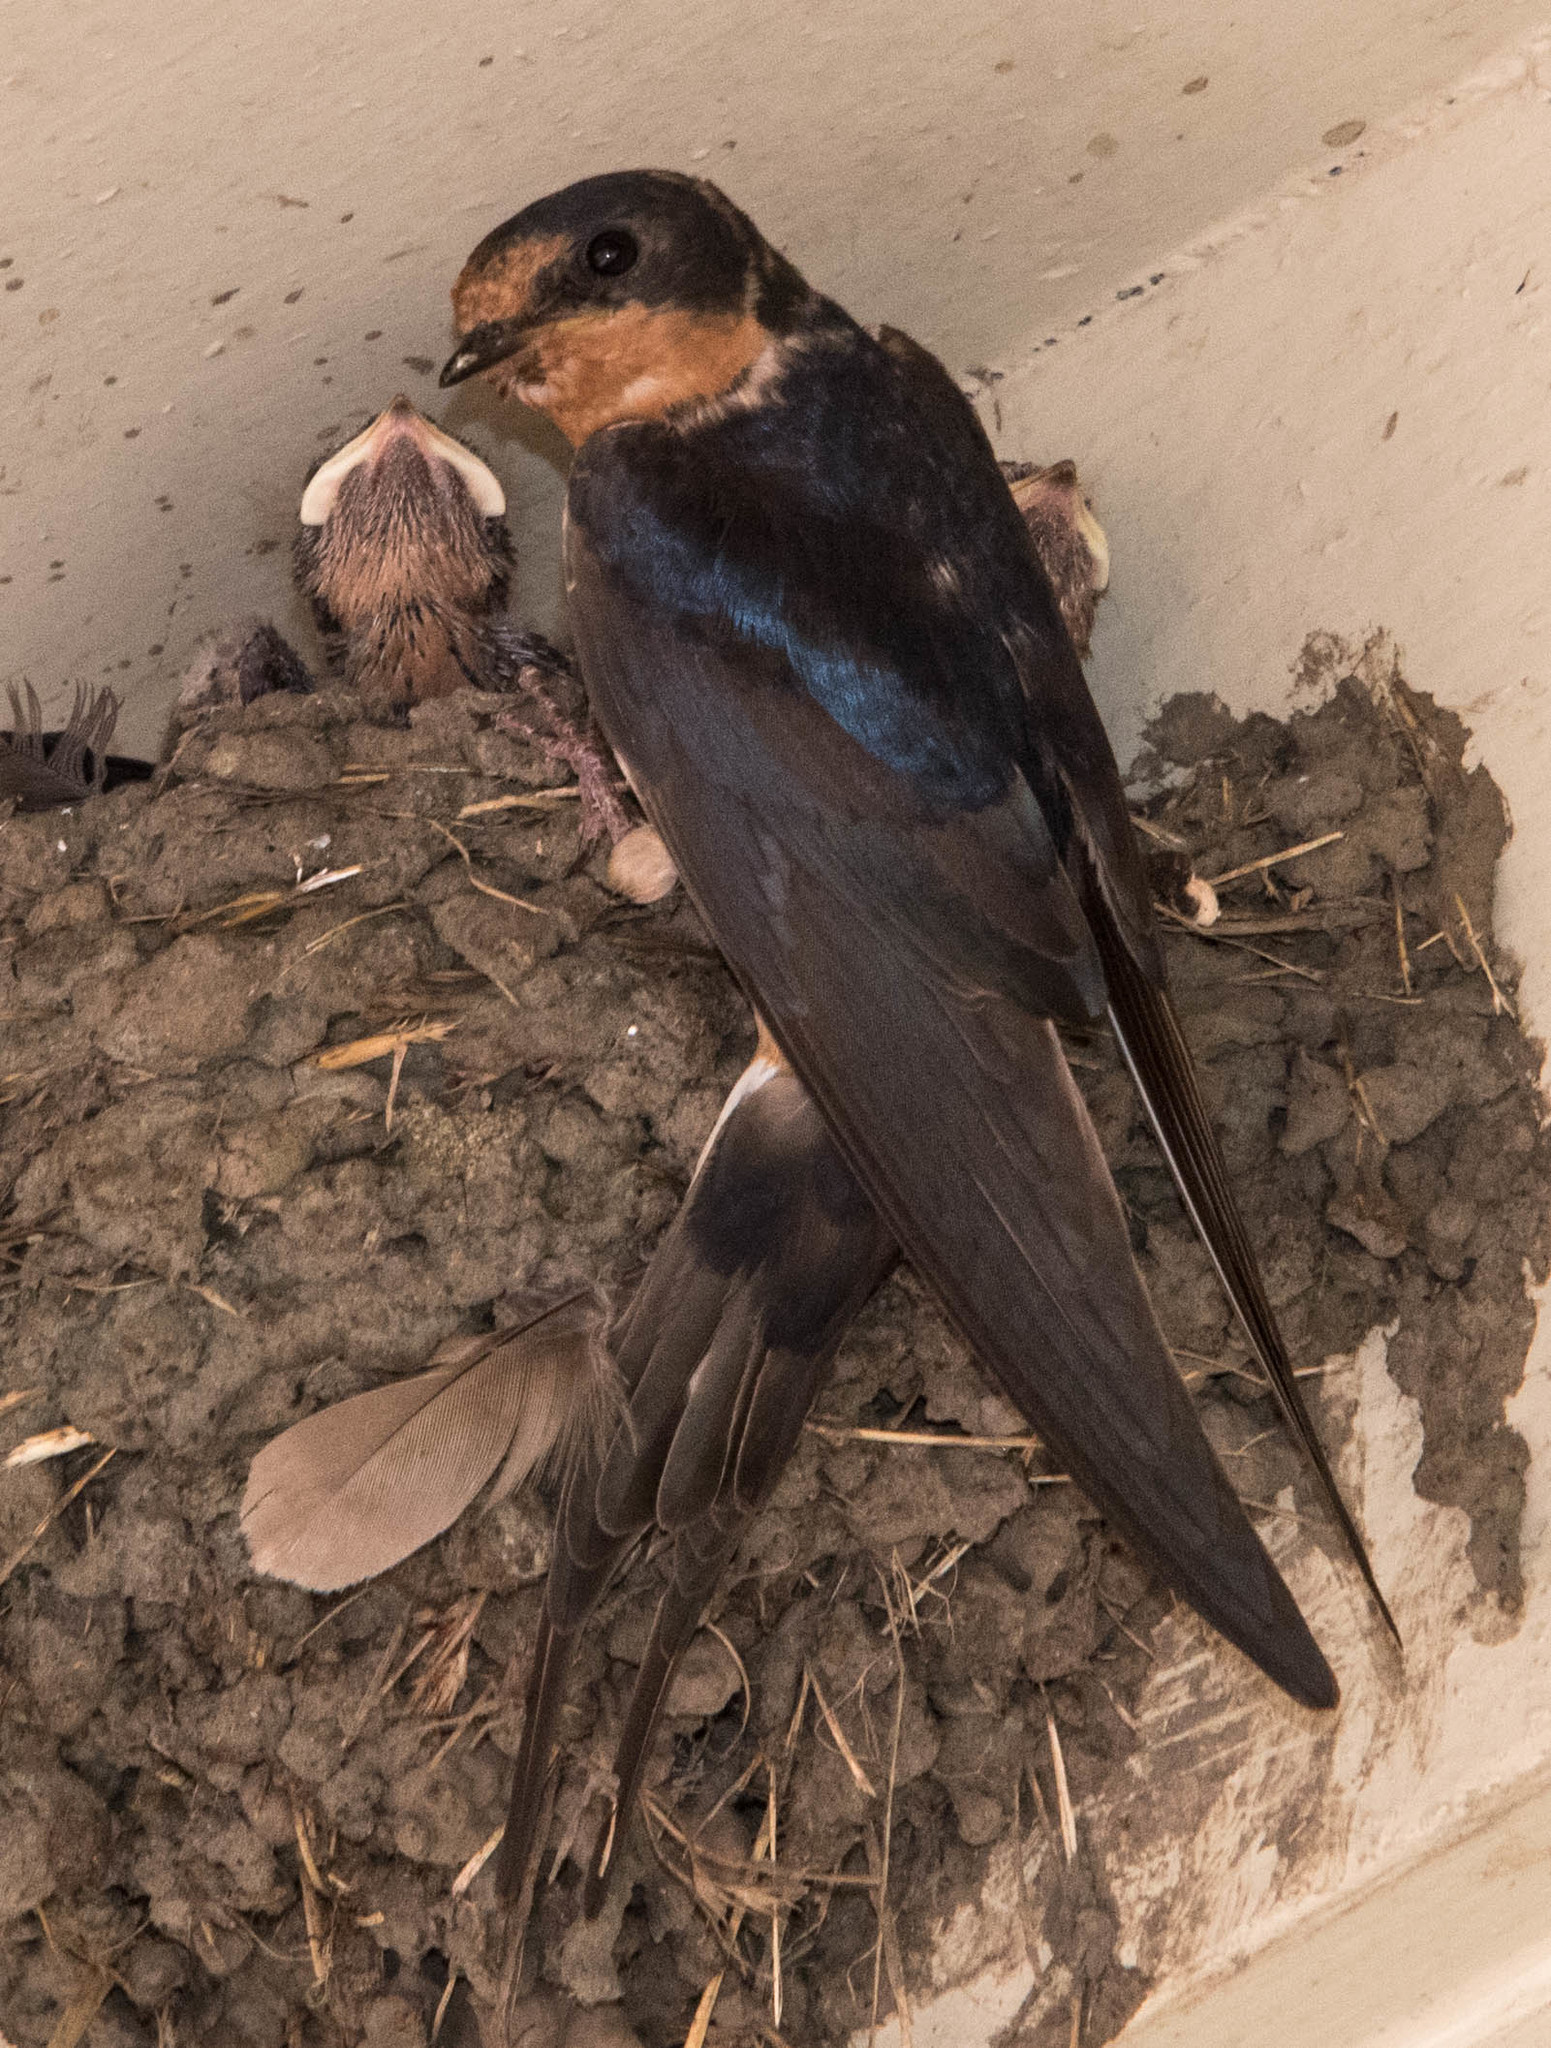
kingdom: Animalia
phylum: Chordata
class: Aves
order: Passeriformes
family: Hirundinidae
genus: Hirundo
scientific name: Hirundo rustica
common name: Barn swallow
